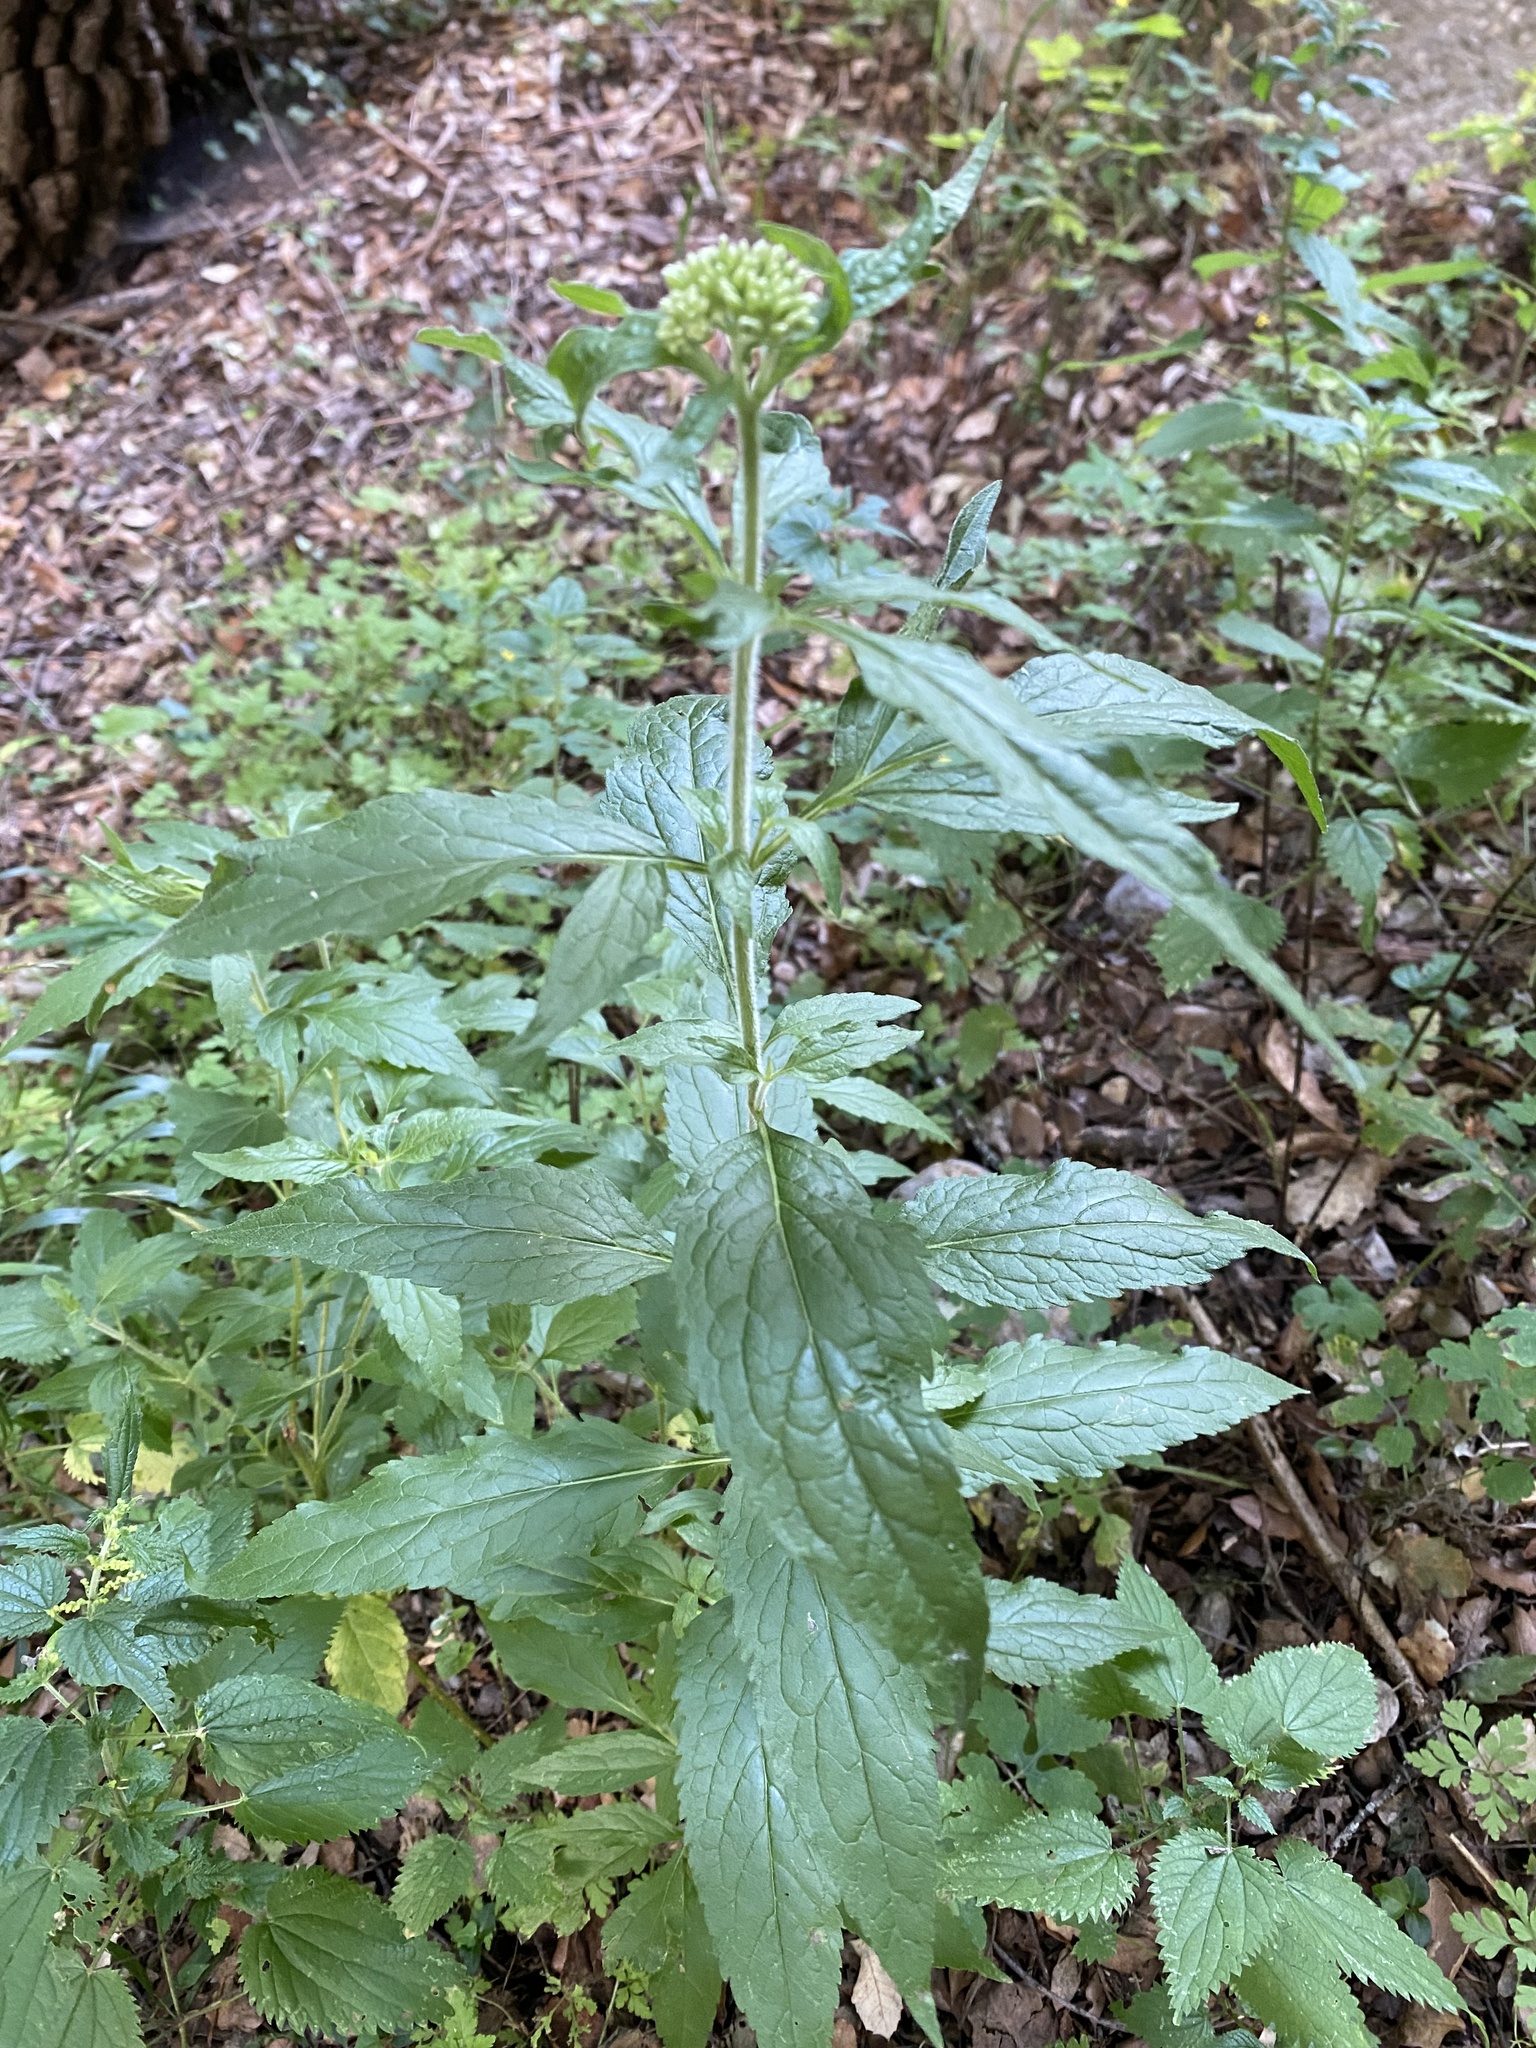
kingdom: Plantae
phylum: Tracheophyta
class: Magnoliopsida
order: Asterales
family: Asteraceae
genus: Eupatorium
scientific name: Eupatorium cannabinum
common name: Hemp-agrimony
